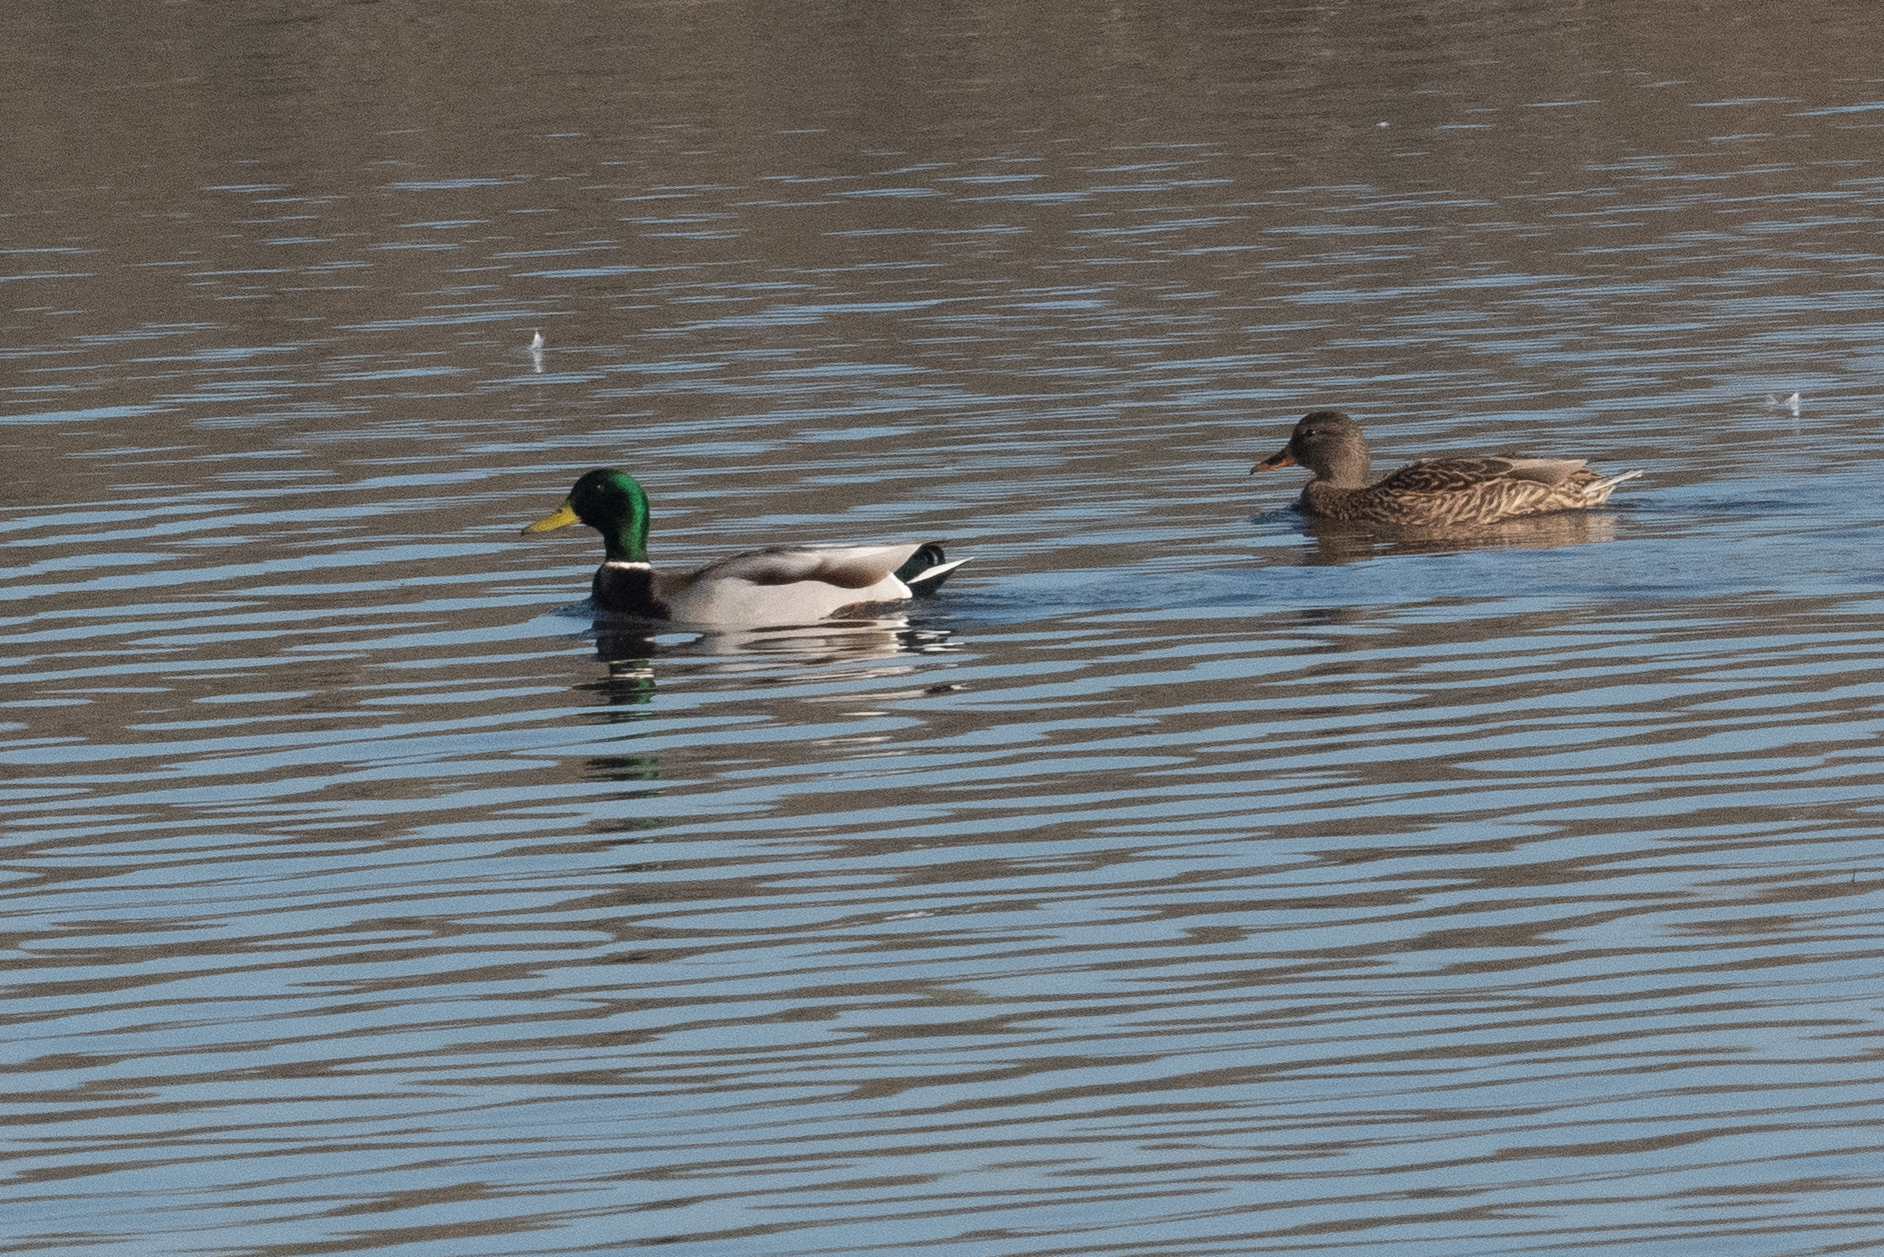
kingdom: Animalia
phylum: Chordata
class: Aves
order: Anseriformes
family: Anatidae
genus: Anas
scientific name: Anas platyrhynchos
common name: Mallard
